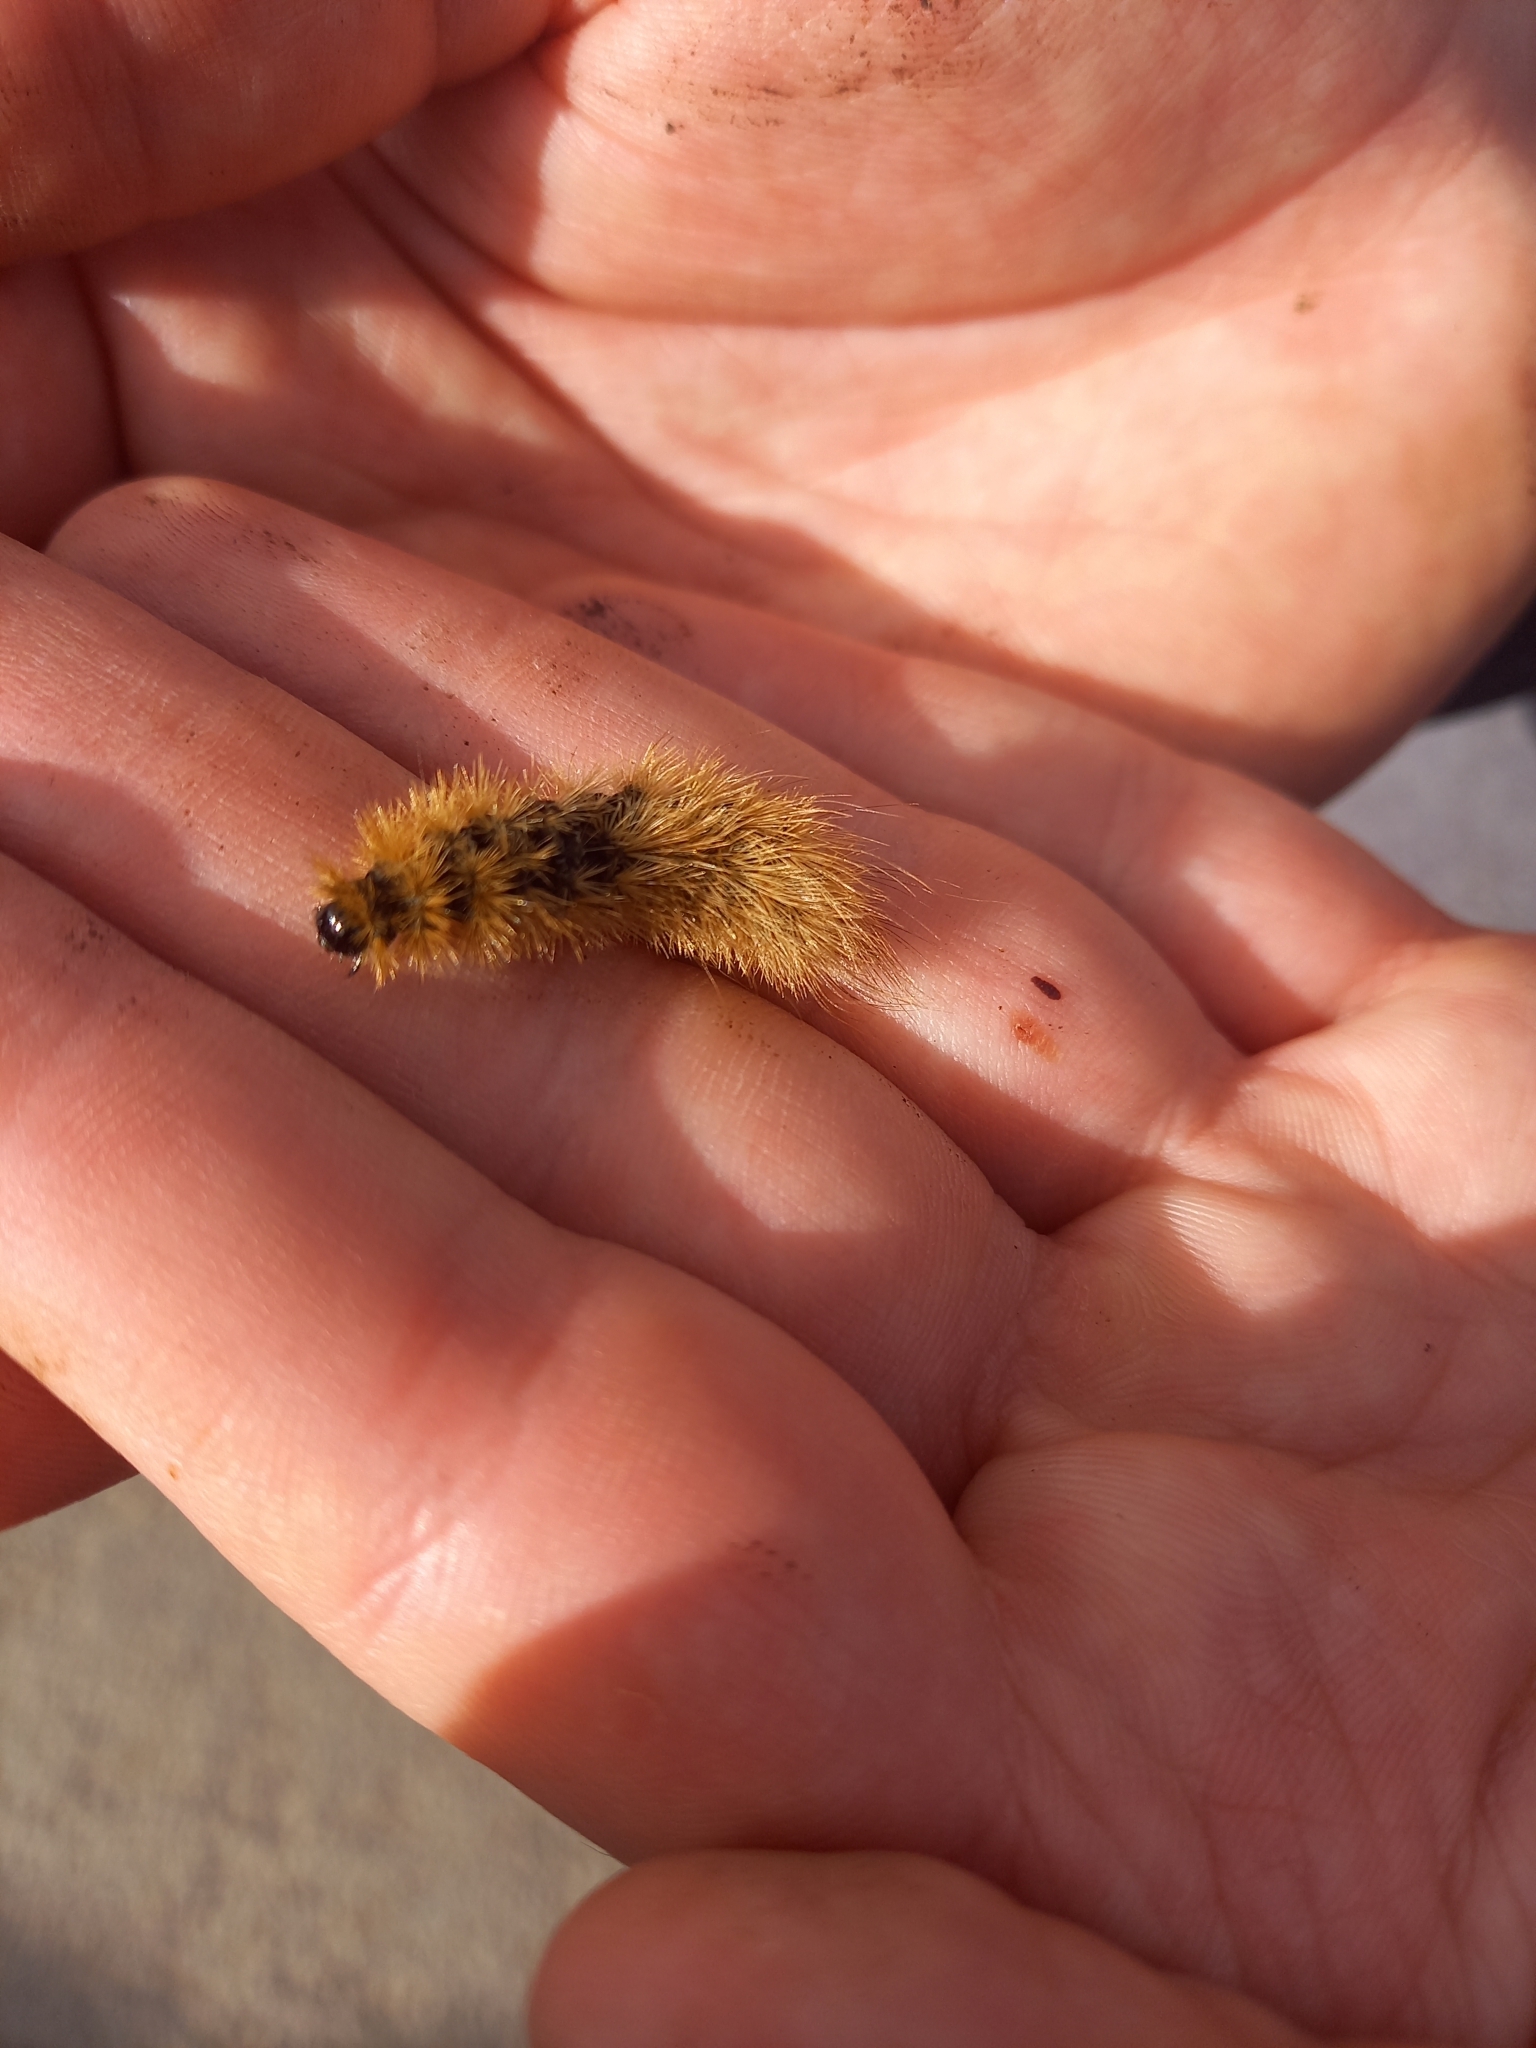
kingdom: Animalia
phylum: Arthropoda
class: Insecta
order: Lepidoptera
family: Erebidae
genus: Phragmatobia
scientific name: Phragmatobia fuliginosa
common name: Ruby tiger
